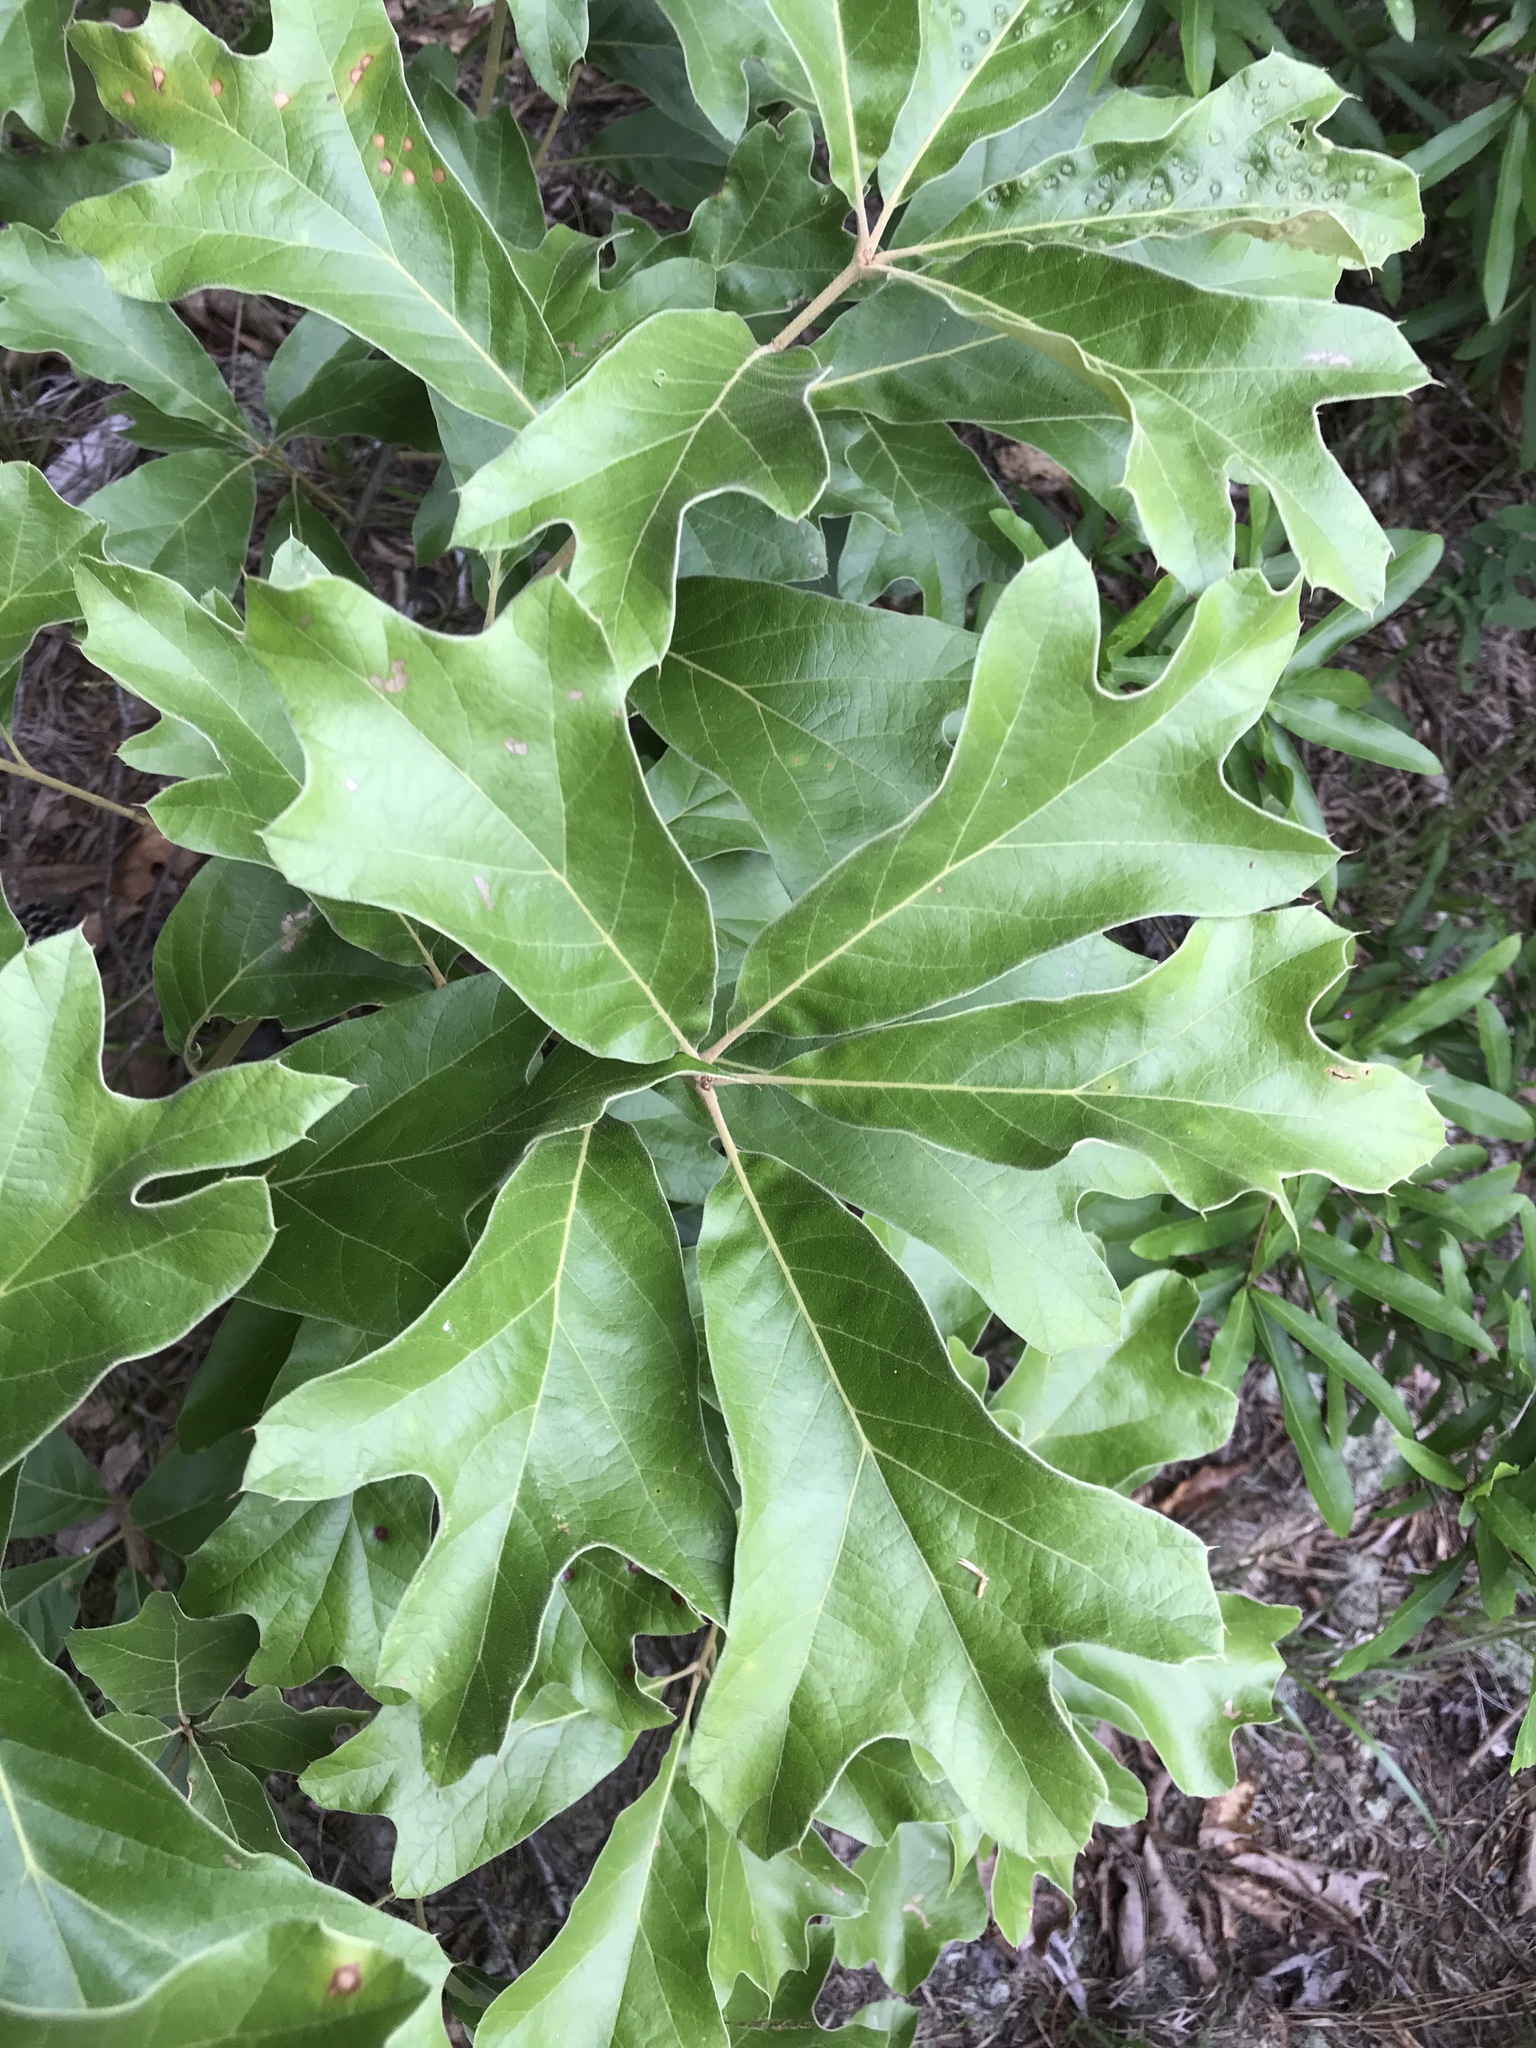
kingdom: Plantae
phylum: Tracheophyta
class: Magnoliopsida
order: Fagales
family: Fagaceae
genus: Quercus
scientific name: Quercus falcata
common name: Southern red oak
